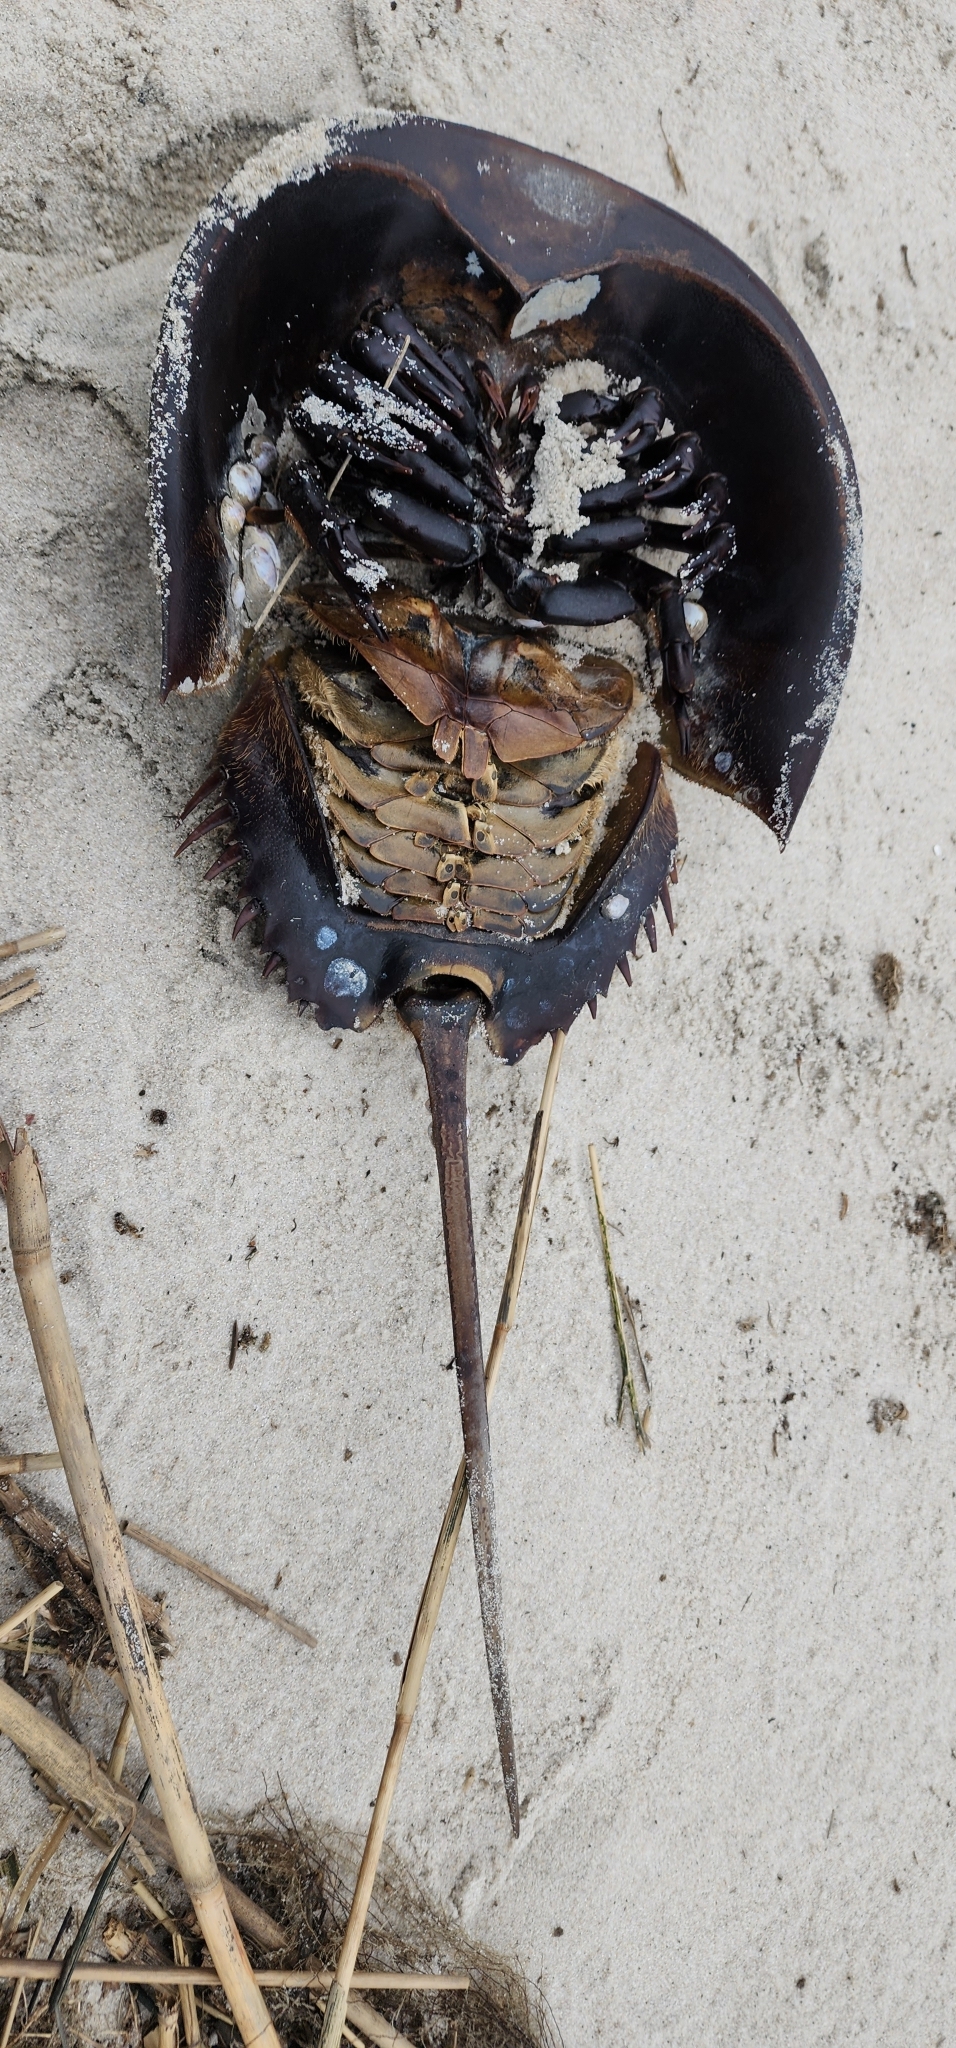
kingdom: Animalia
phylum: Arthropoda
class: Merostomata
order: Xiphosurida
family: Limulidae
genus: Limulus
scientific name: Limulus polyphemus
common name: Horseshoe crab
